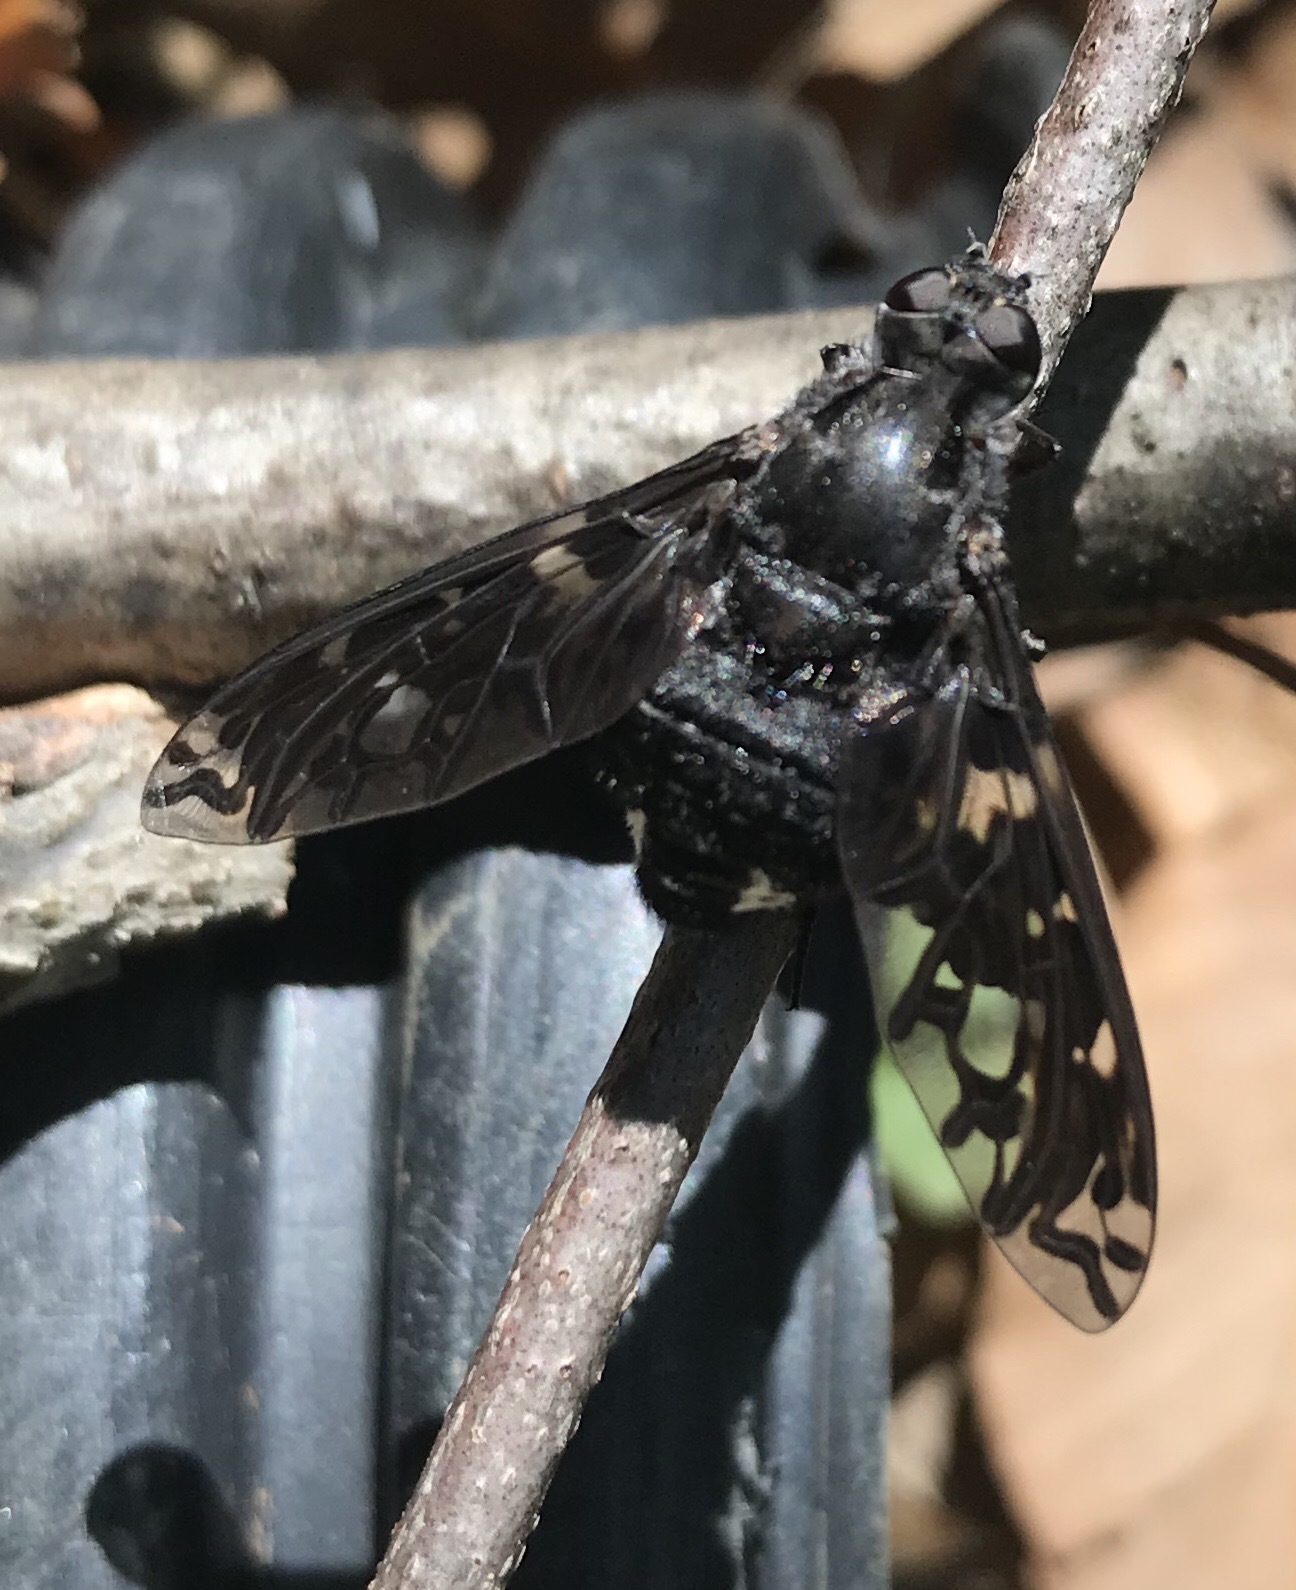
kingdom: Animalia
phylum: Arthropoda
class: Insecta
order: Diptera
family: Bombyliidae
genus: Xenox
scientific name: Xenox tigrinus
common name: Tiger bee fly
